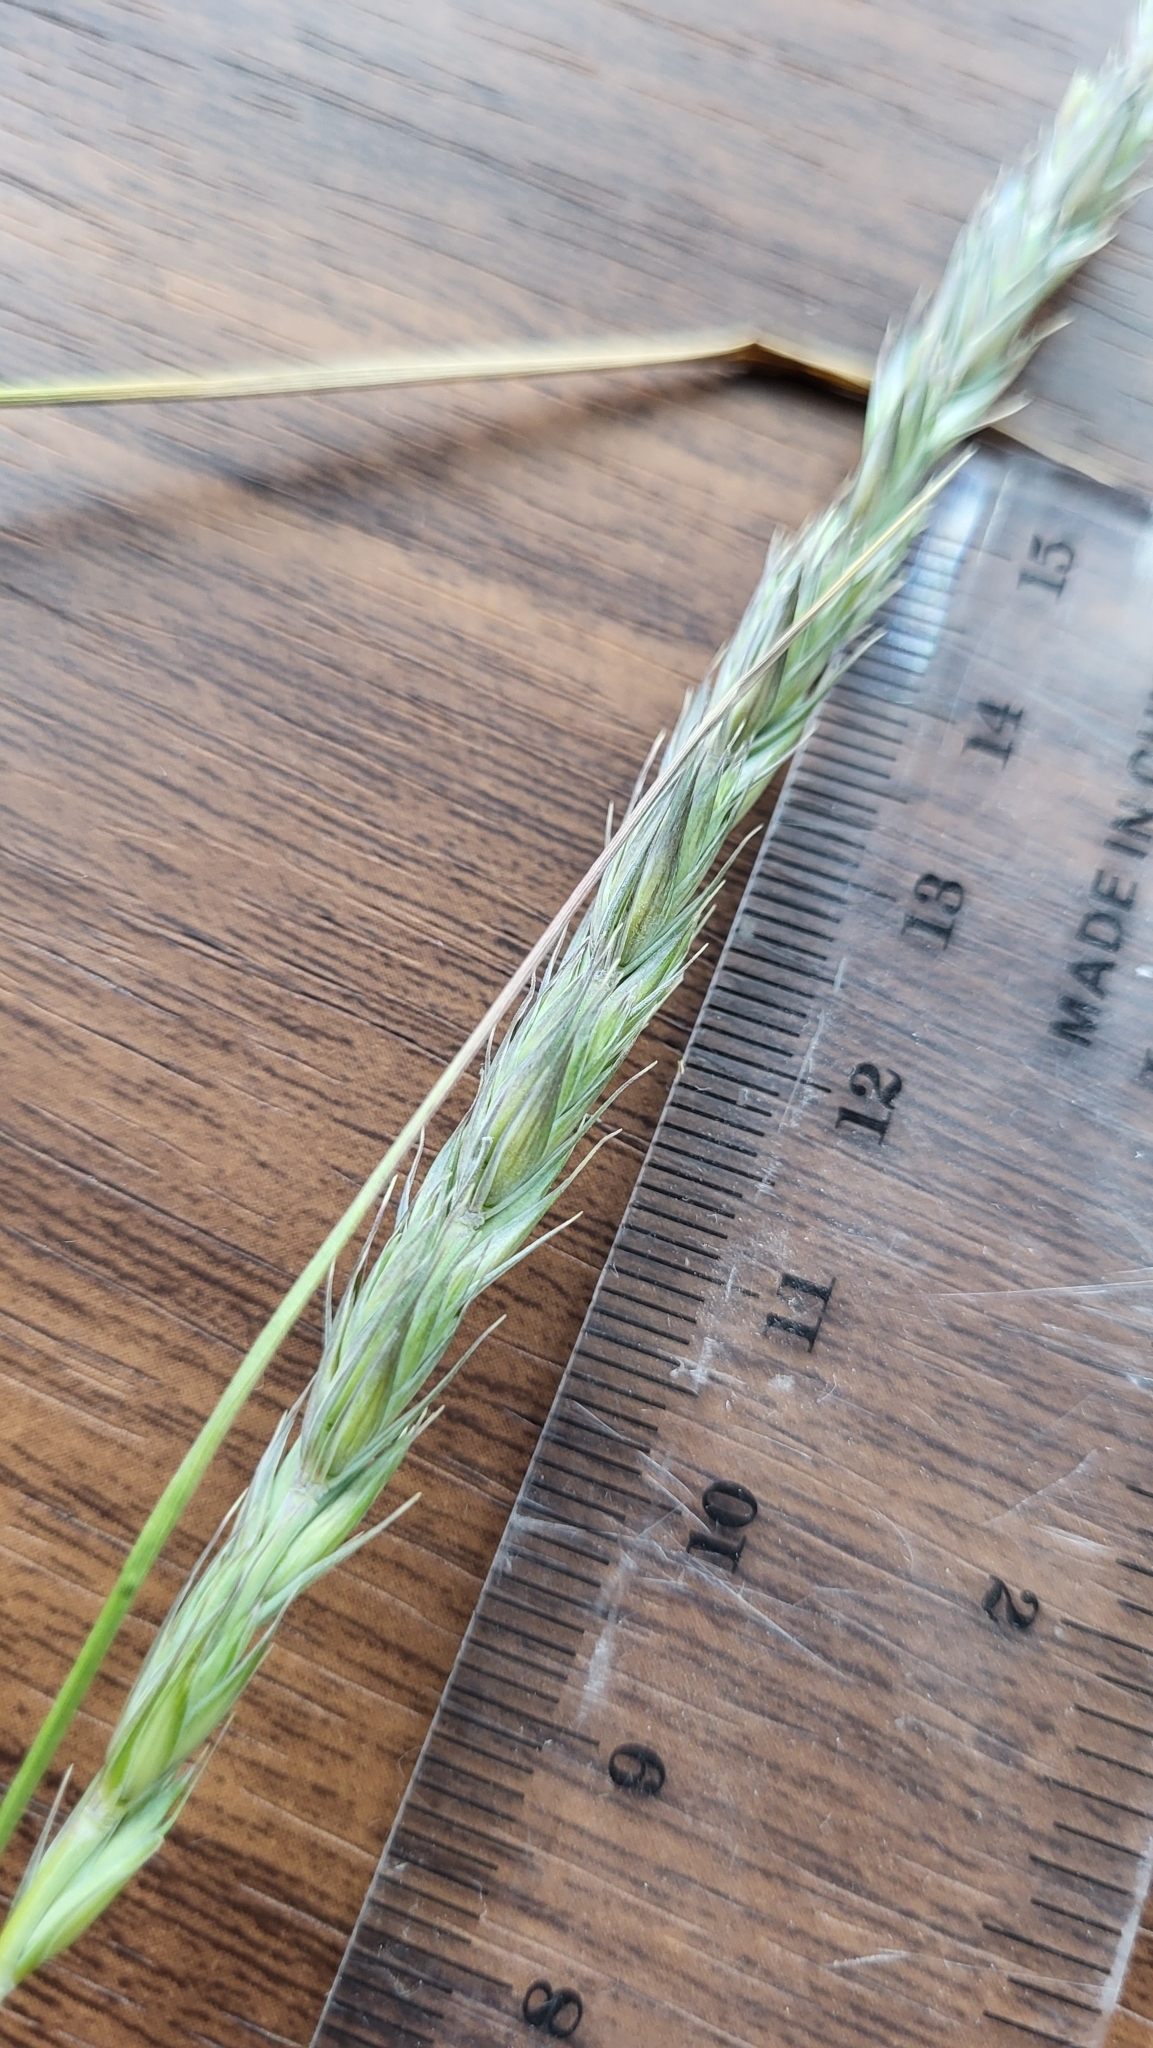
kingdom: Plantae
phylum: Tracheophyta
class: Liliopsida
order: Poales
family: Poaceae
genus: Leymus
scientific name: Leymus triticoides
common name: Beardless wild rye
